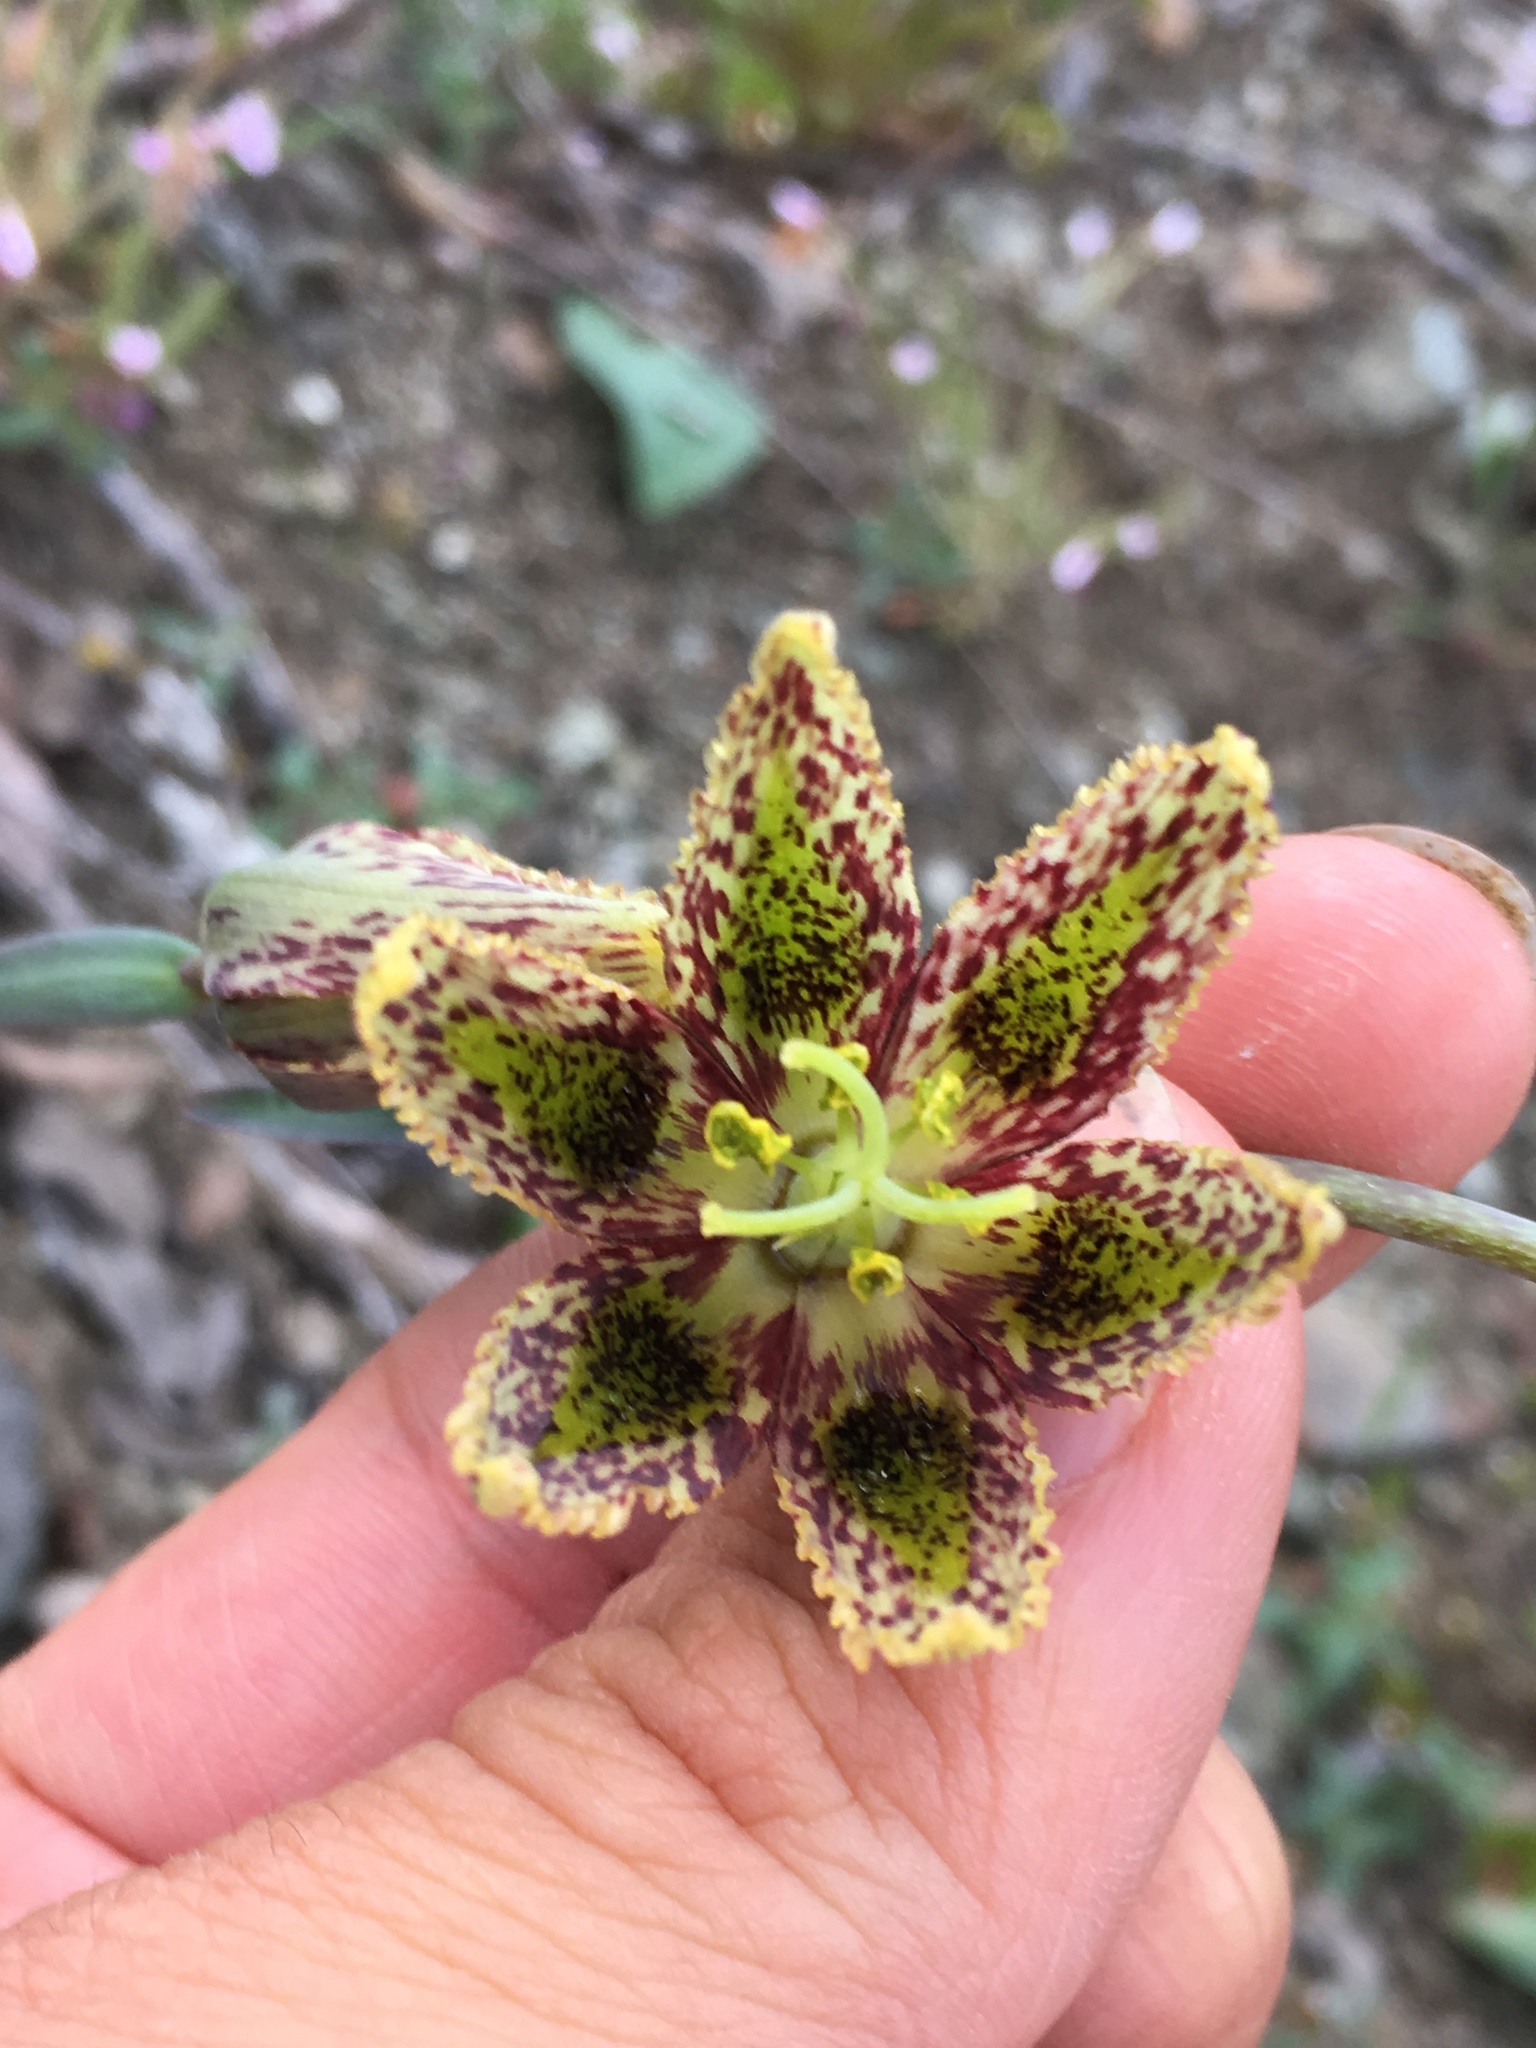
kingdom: Plantae
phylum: Tracheophyta
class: Liliopsida
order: Liliales
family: Liliaceae
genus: Fritillaria
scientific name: Fritillaria affinis
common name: Ojai fritillary
